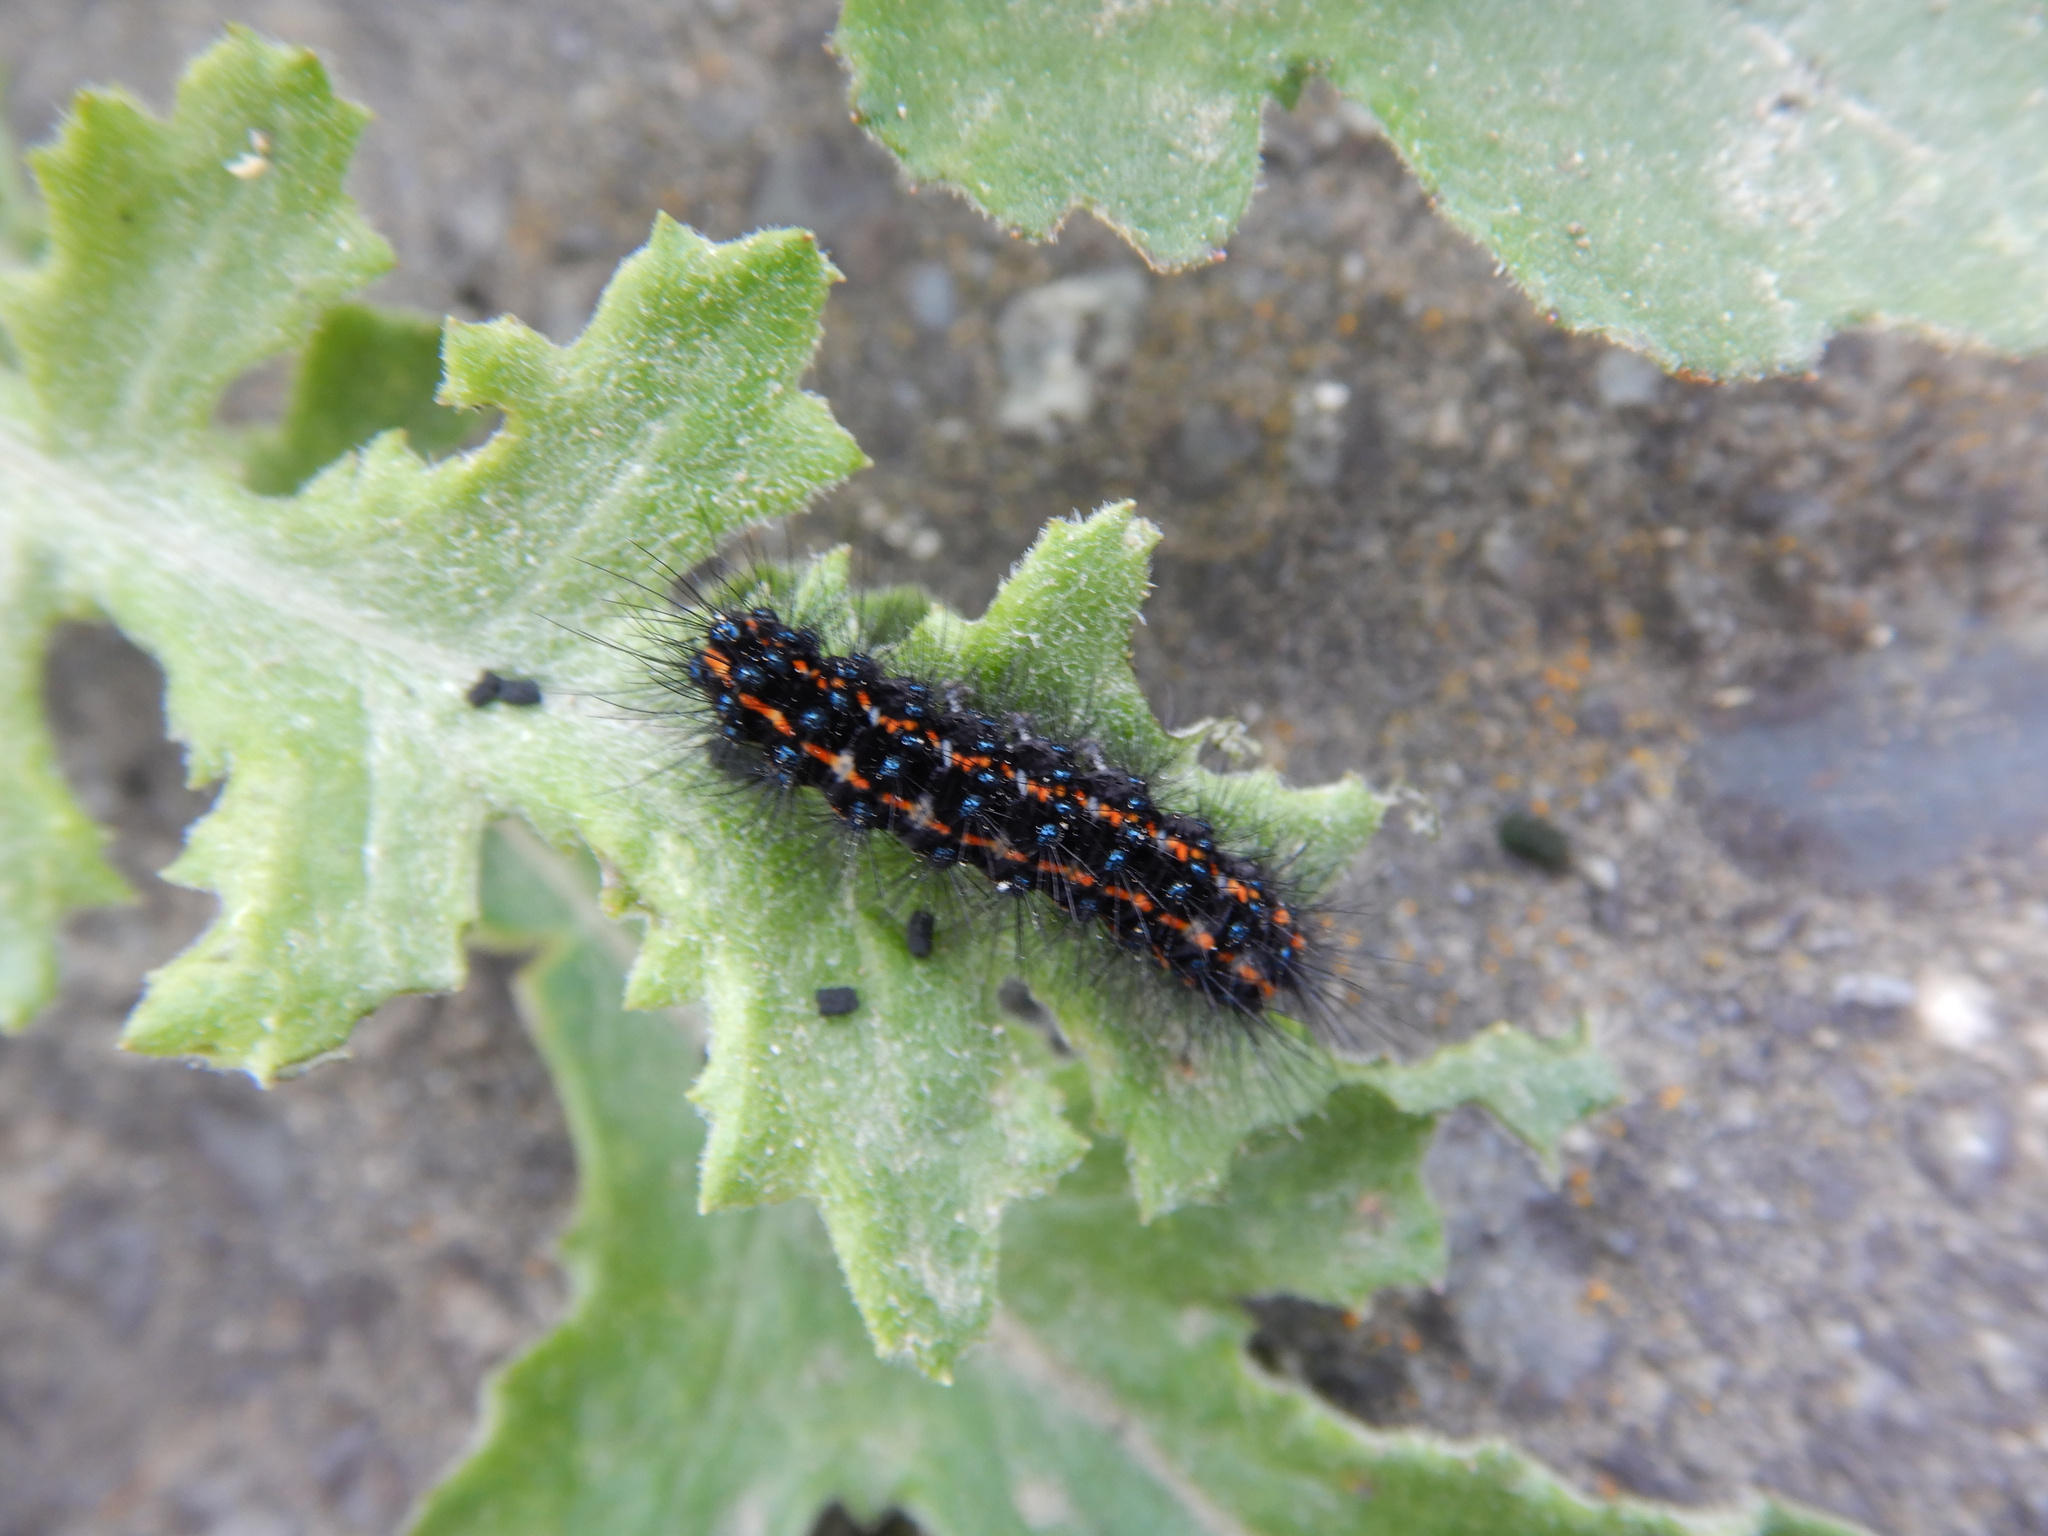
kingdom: Animalia
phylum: Arthropoda
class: Insecta
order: Lepidoptera
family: Erebidae
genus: Nyctemera
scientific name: Nyctemera annulatum
